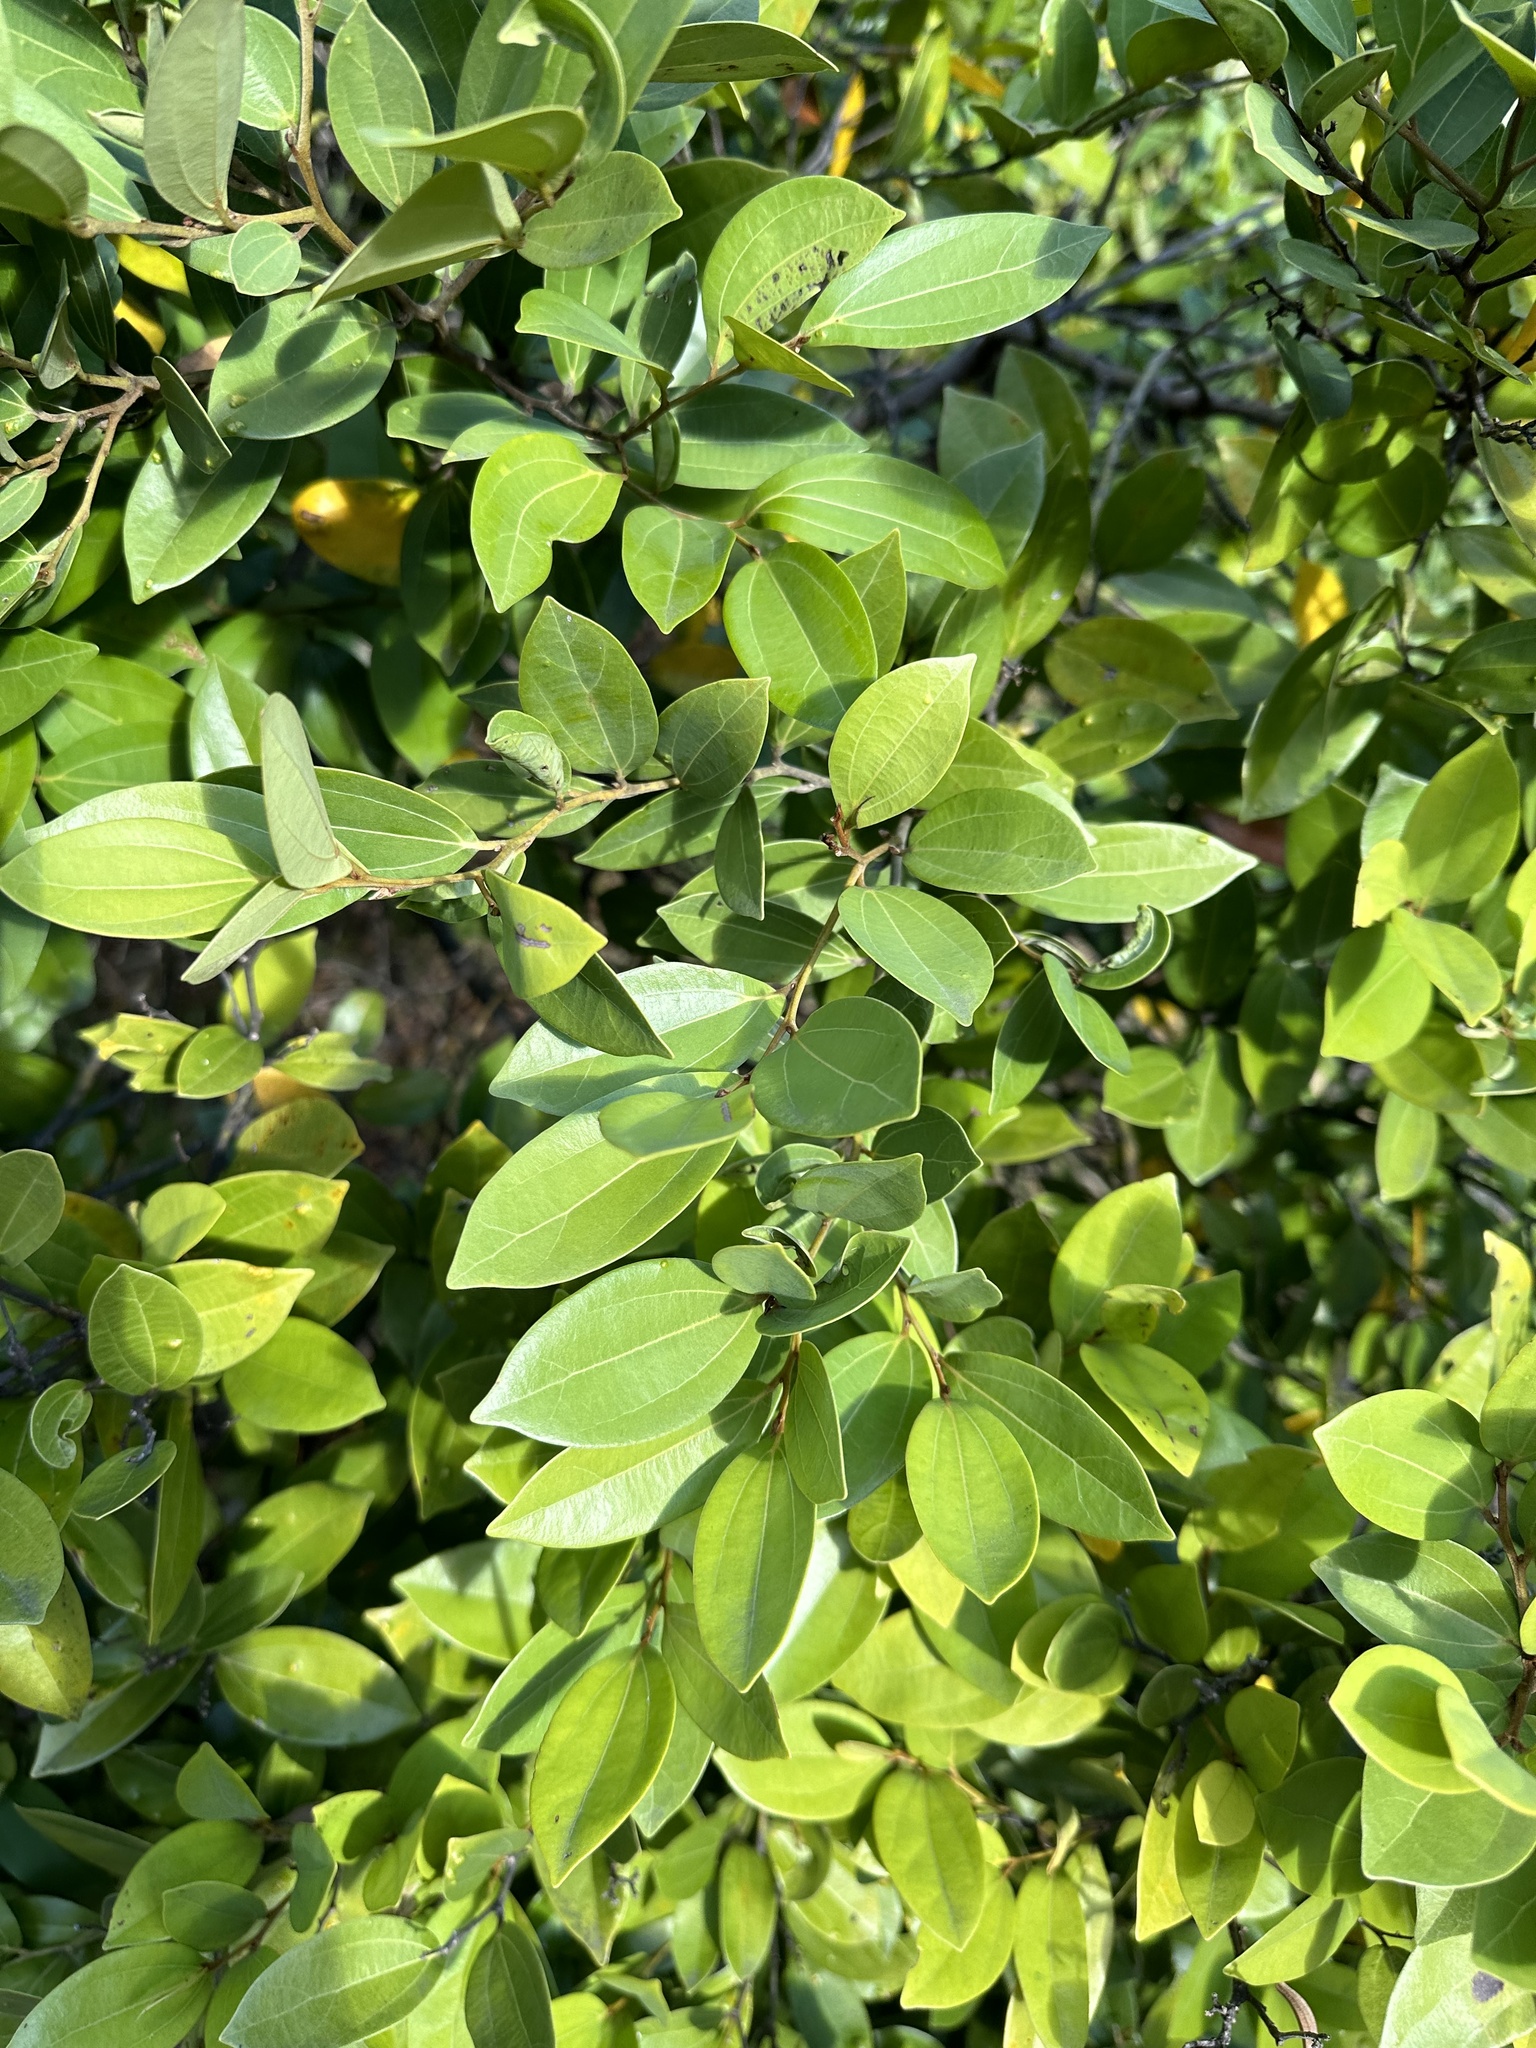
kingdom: Plantae
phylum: Tracheophyta
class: Magnoliopsida
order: Laurales
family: Lauraceae
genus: Cryptocarya
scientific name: Cryptocarya triplinervis
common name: Three-vein cryptocarya
